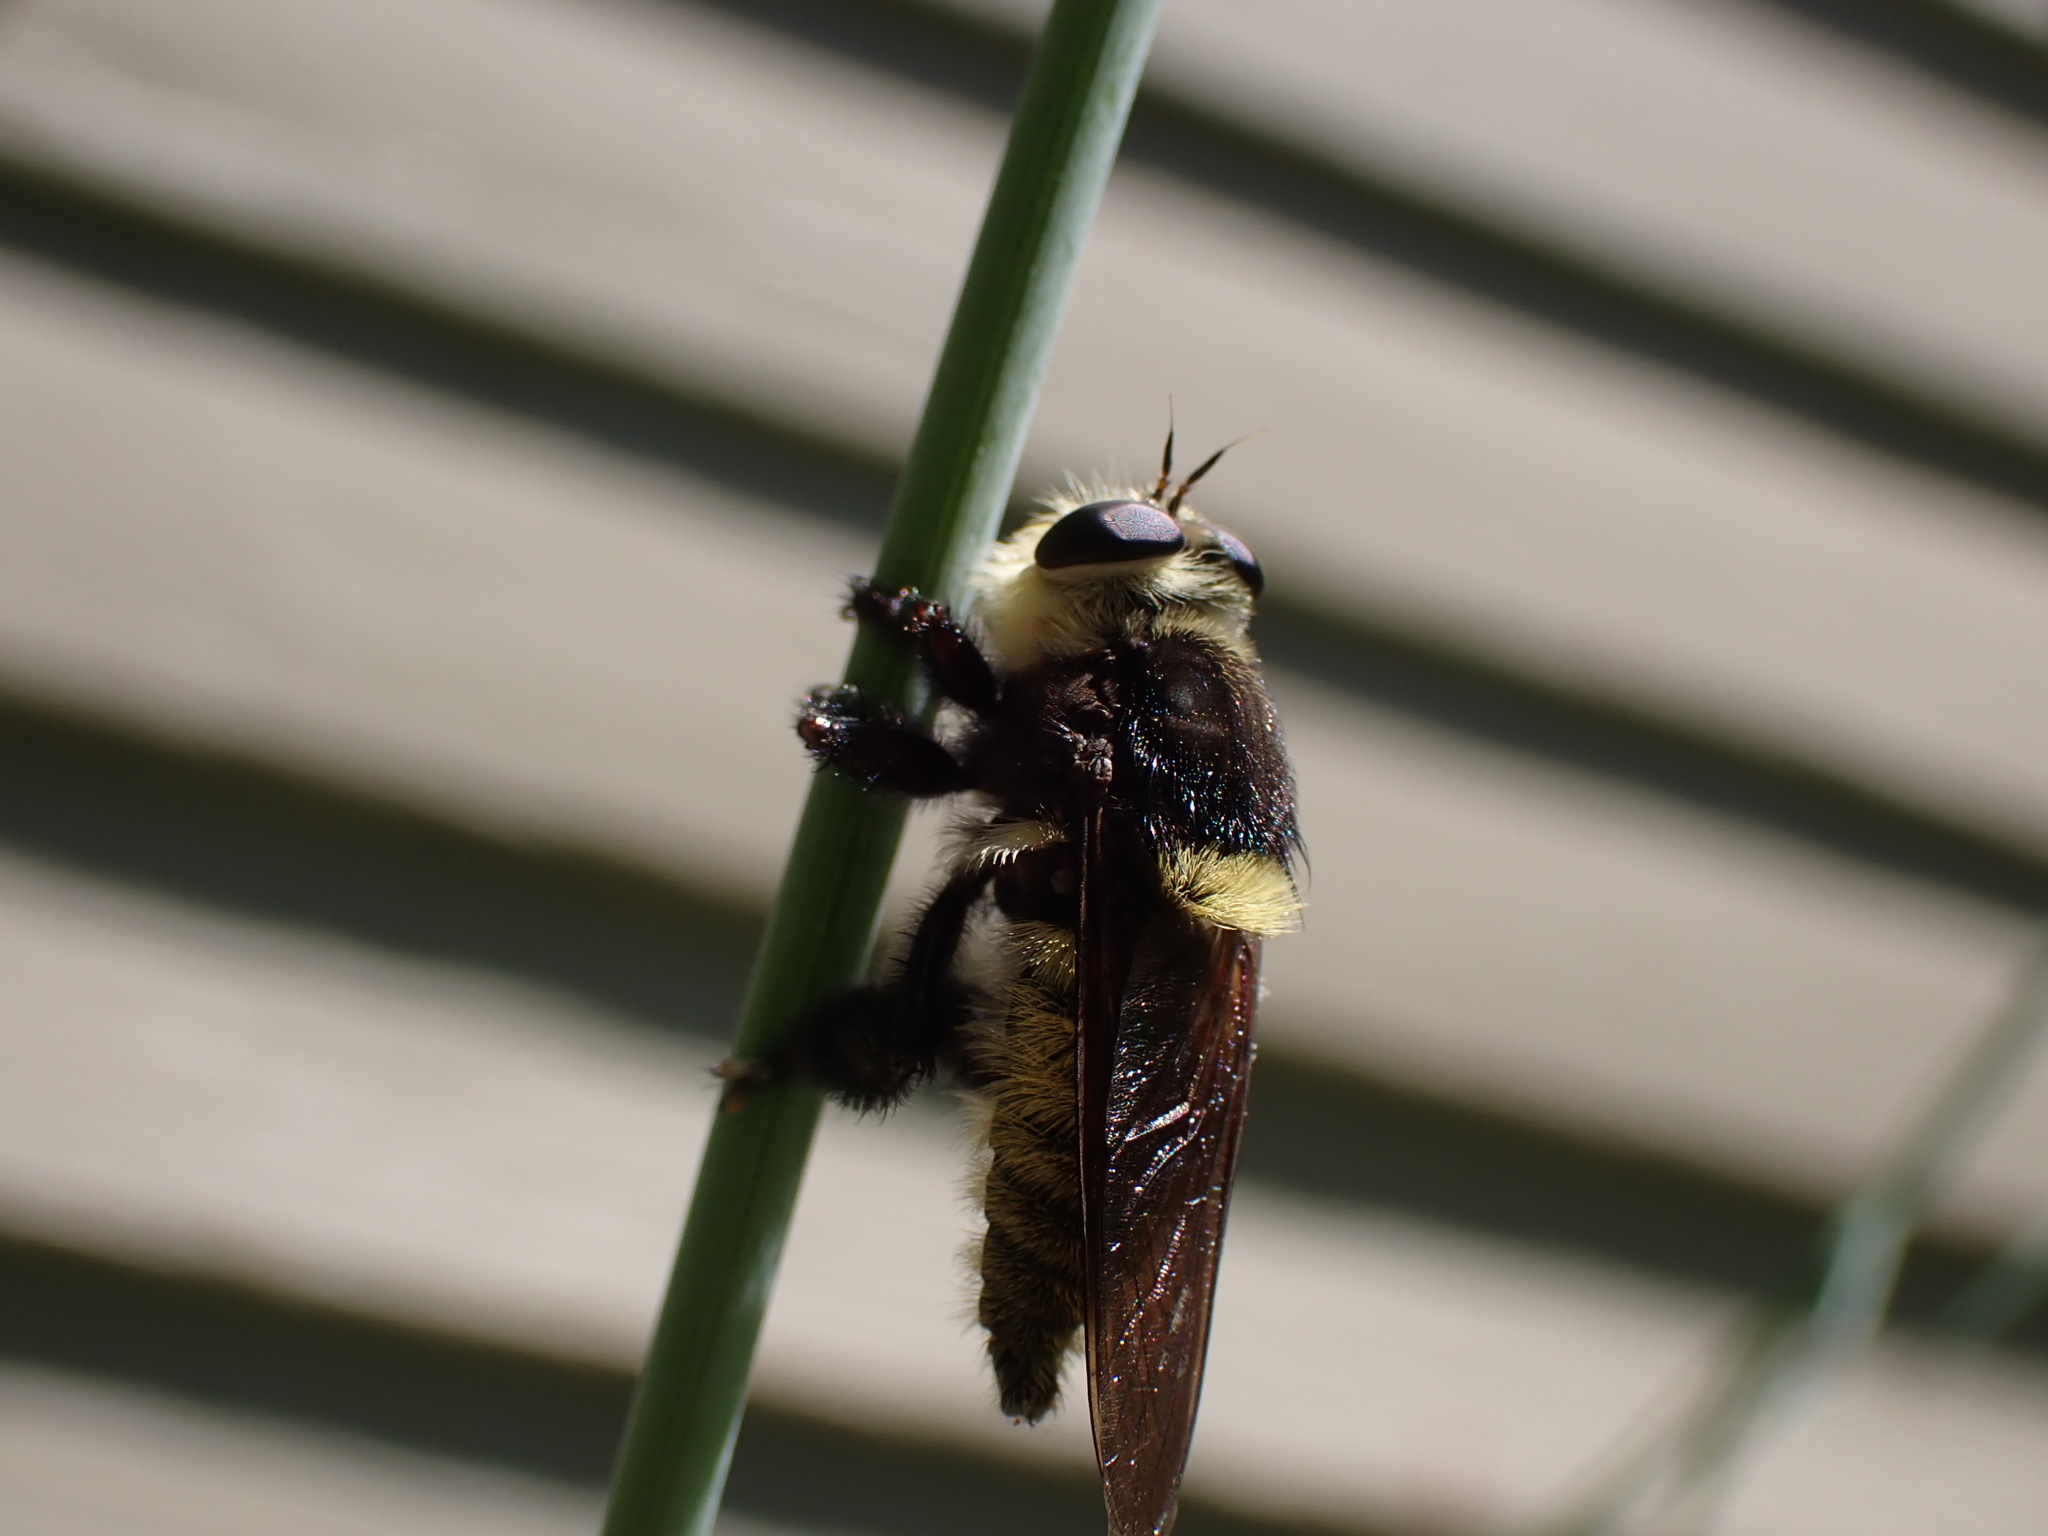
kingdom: Animalia
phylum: Arthropoda
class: Insecta
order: Diptera
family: Asilidae
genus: Mallophora
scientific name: Mallophora fautrix
